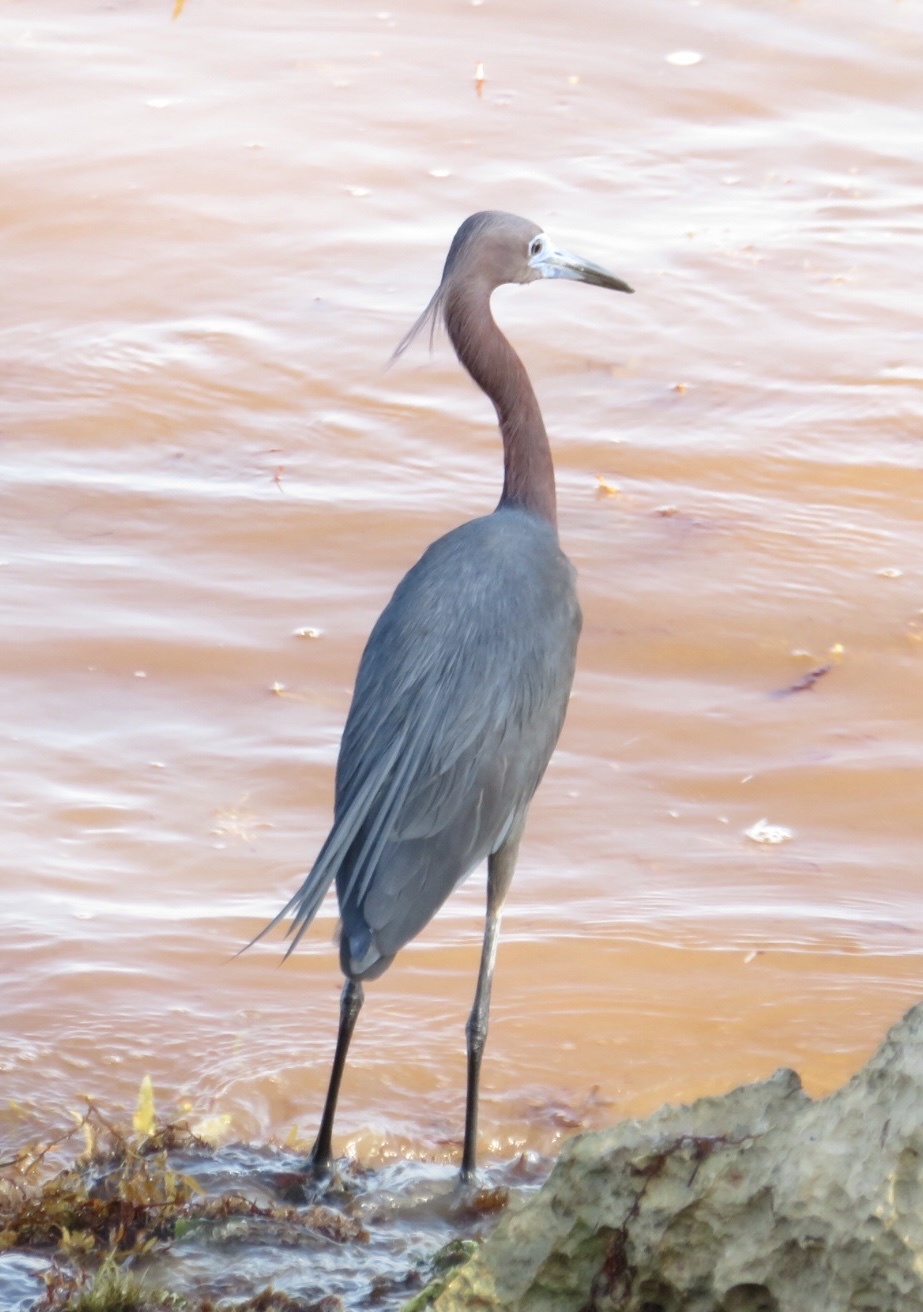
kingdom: Animalia
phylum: Chordata
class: Aves
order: Pelecaniformes
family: Ardeidae
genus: Egretta
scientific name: Egretta rufescens
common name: Reddish egret
